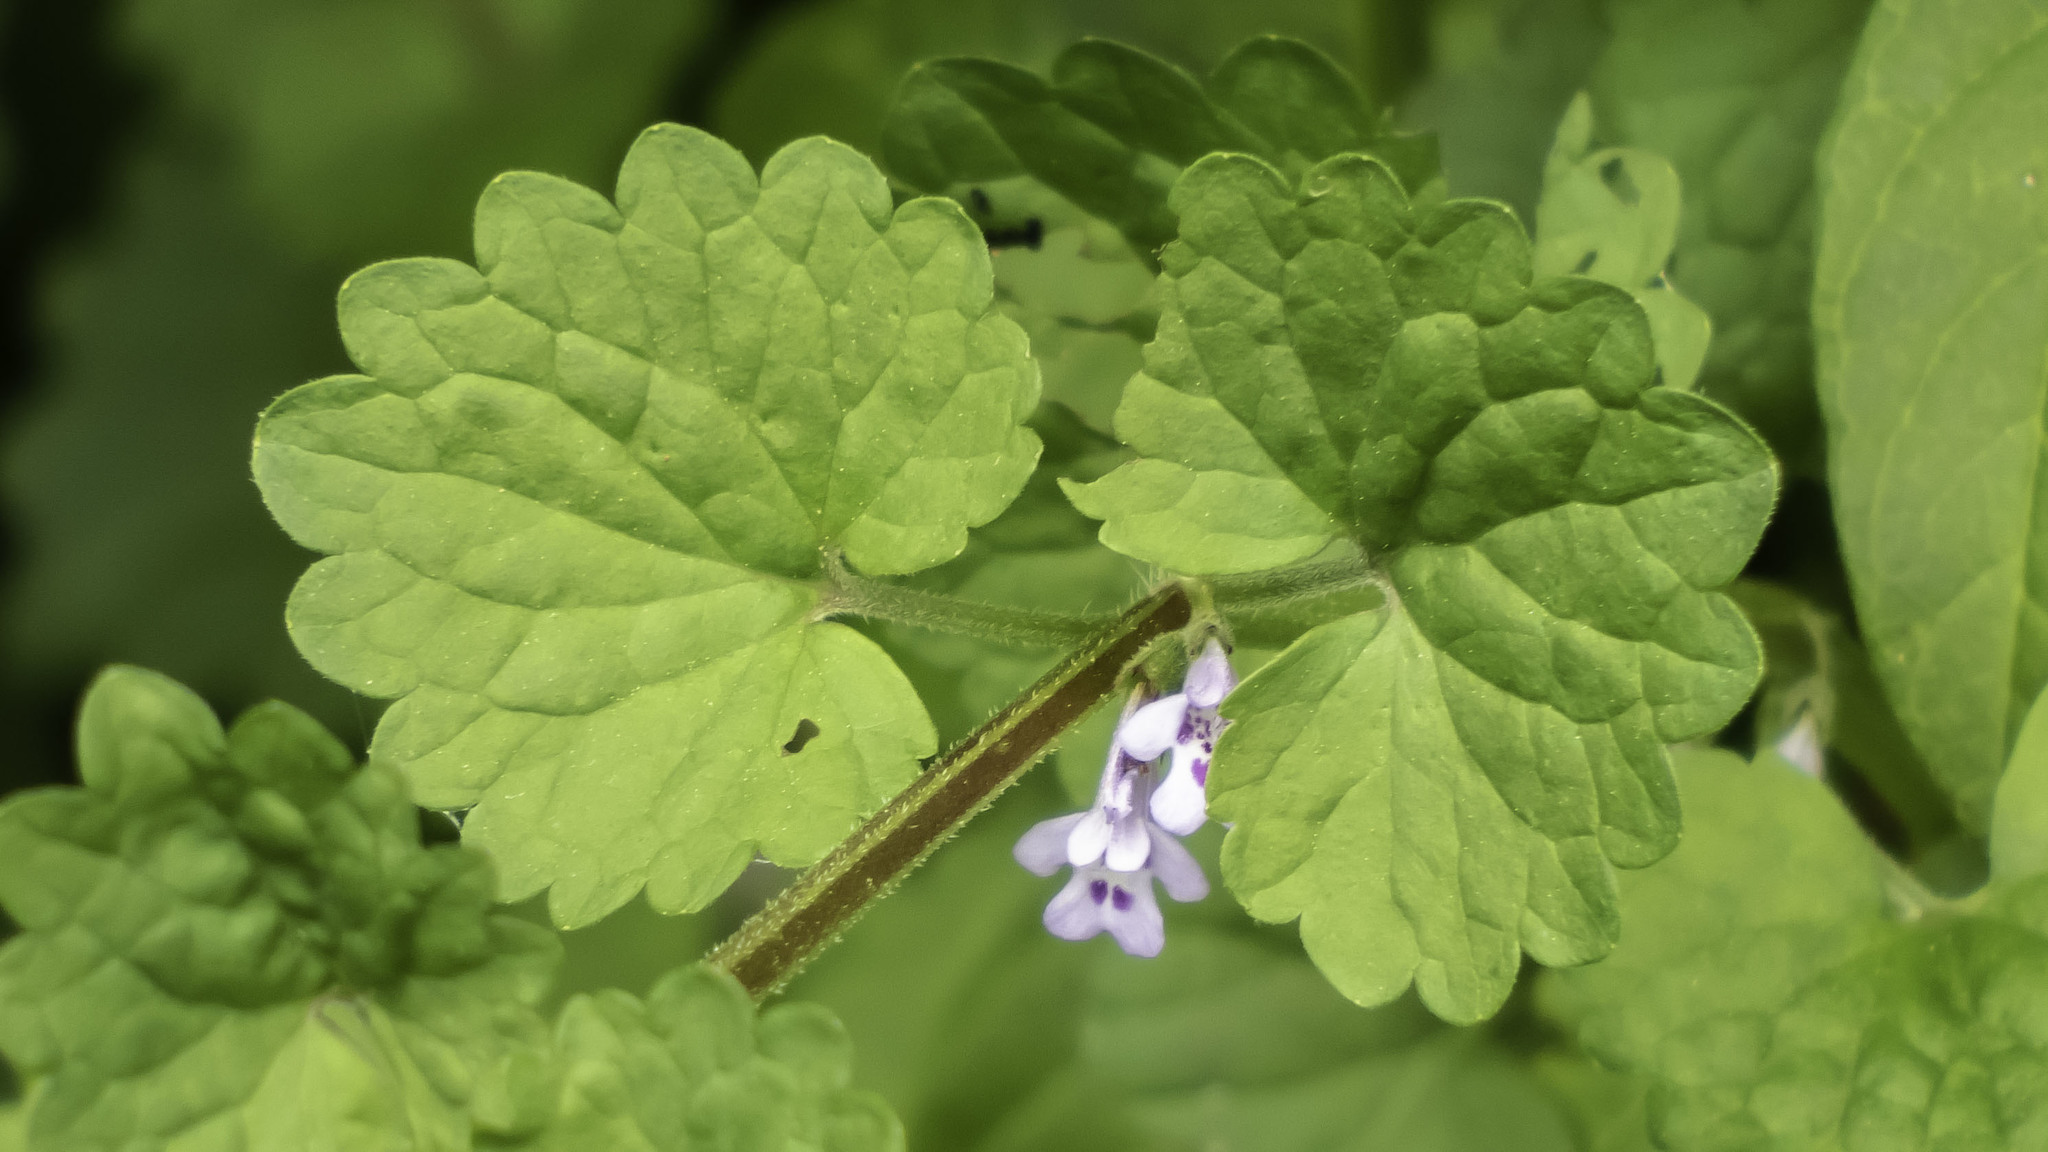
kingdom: Plantae
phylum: Tracheophyta
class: Magnoliopsida
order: Lamiales
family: Lamiaceae
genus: Glechoma
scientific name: Glechoma hederacea
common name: Ground ivy
